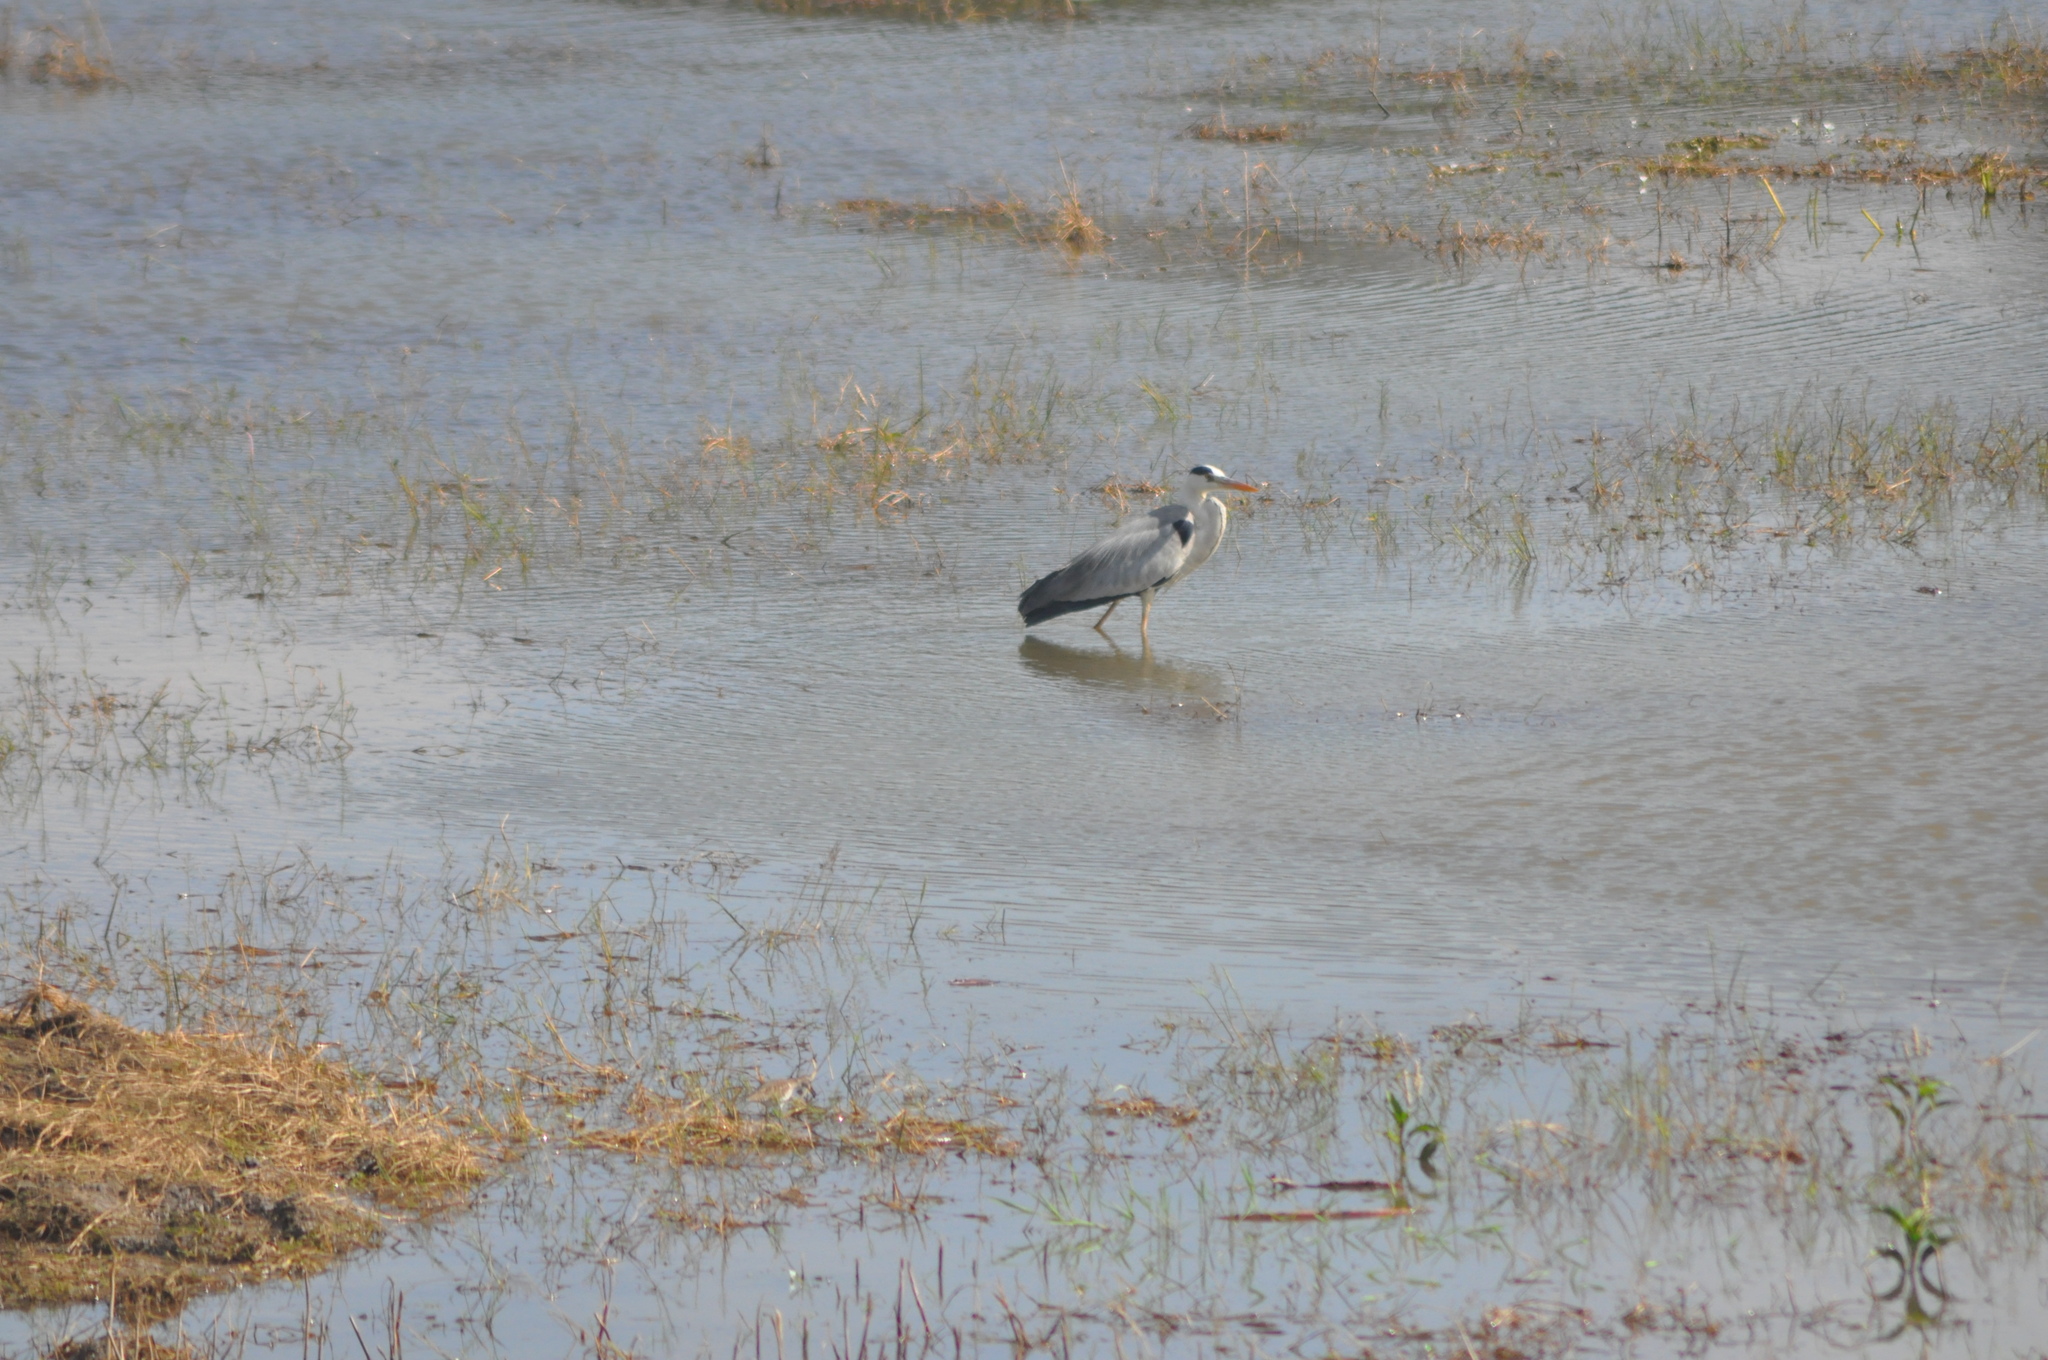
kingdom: Animalia
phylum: Chordata
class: Aves
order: Pelecaniformes
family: Ardeidae
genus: Ardea
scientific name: Ardea cinerea
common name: Grey heron
